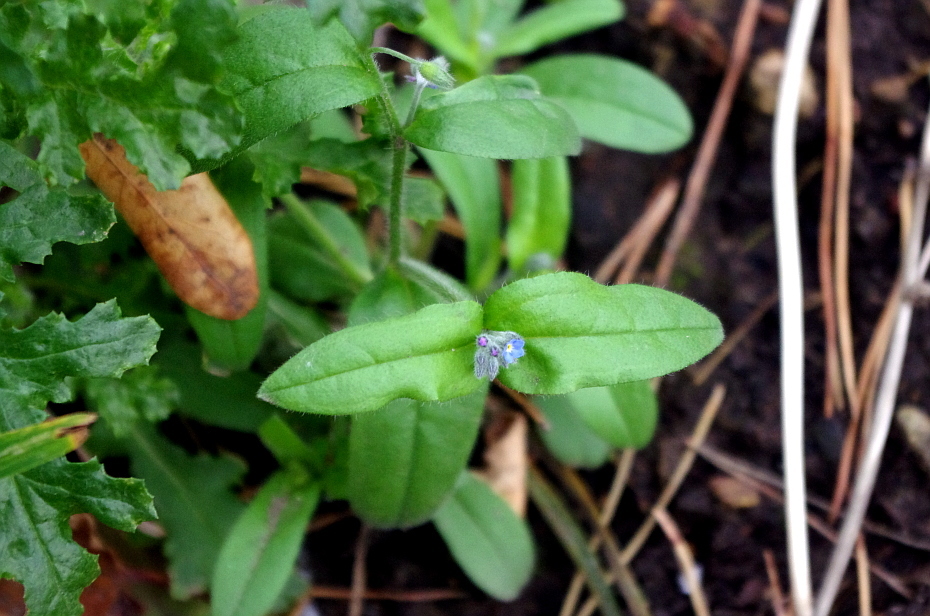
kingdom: Plantae
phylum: Tracheophyta
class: Magnoliopsida
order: Boraginales
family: Boraginaceae
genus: Myosotis
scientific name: Myosotis sparsiflora
